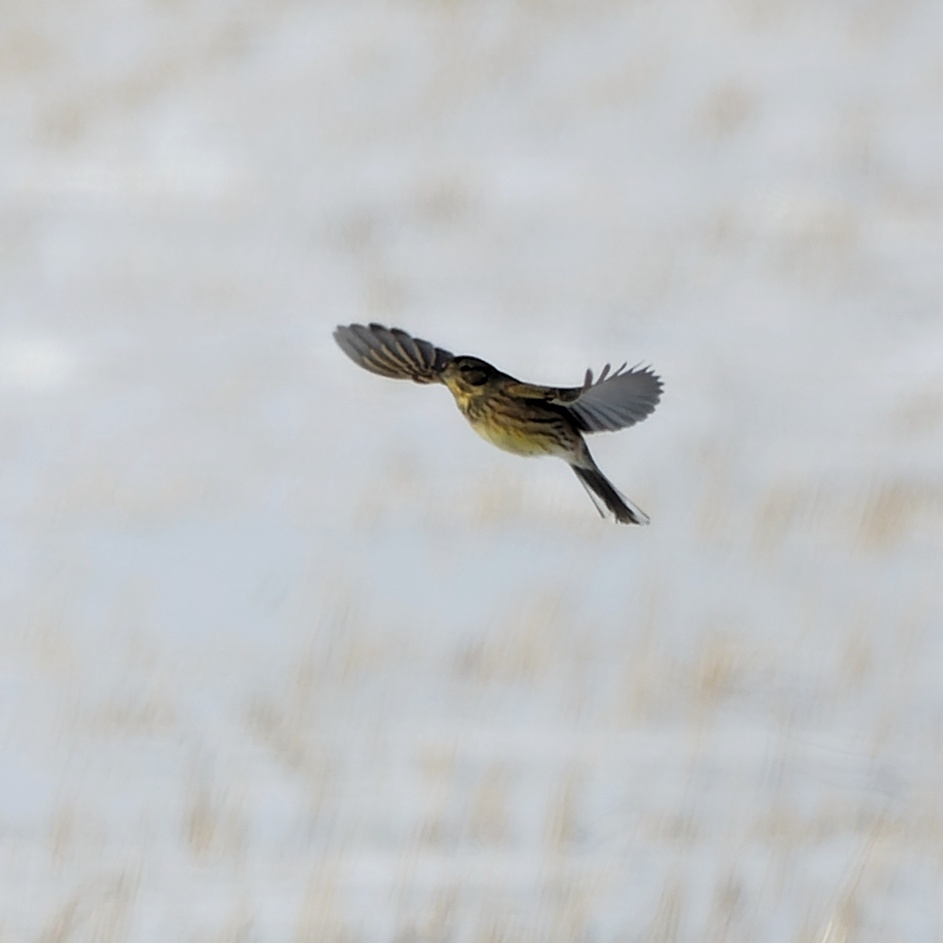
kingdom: Animalia
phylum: Chordata
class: Aves
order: Passeriformes
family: Emberizidae
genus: Emberiza
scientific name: Emberiza leucocephalos
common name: Pine bunting
